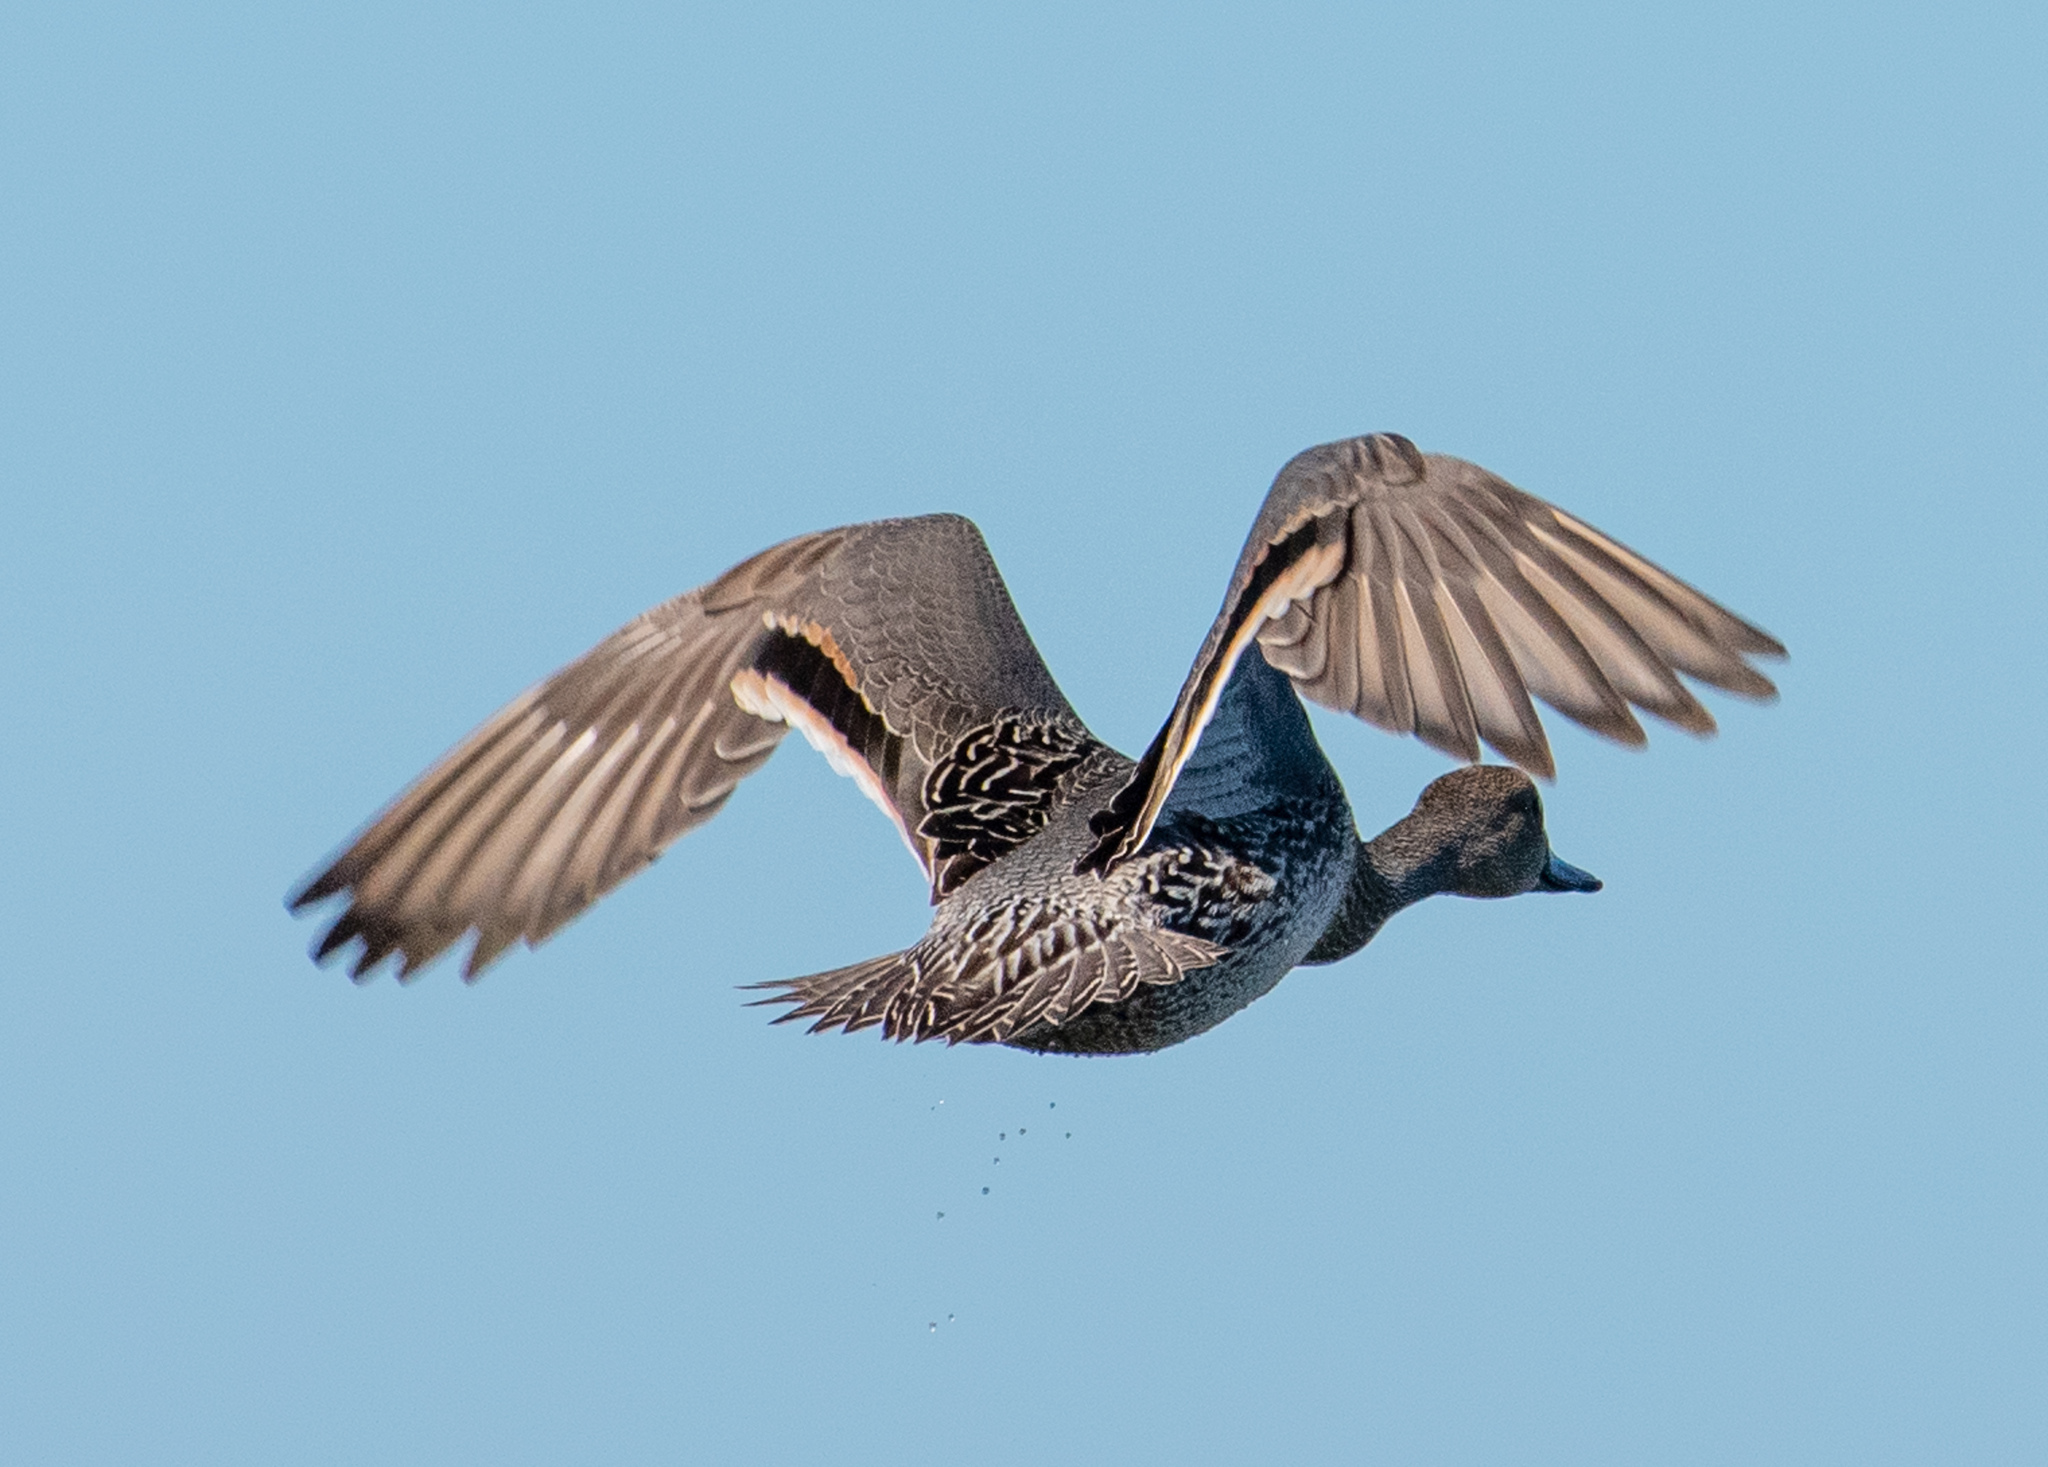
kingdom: Animalia
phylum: Chordata
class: Aves
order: Anseriformes
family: Anatidae
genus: Anas
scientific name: Anas acuta
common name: Northern pintail
